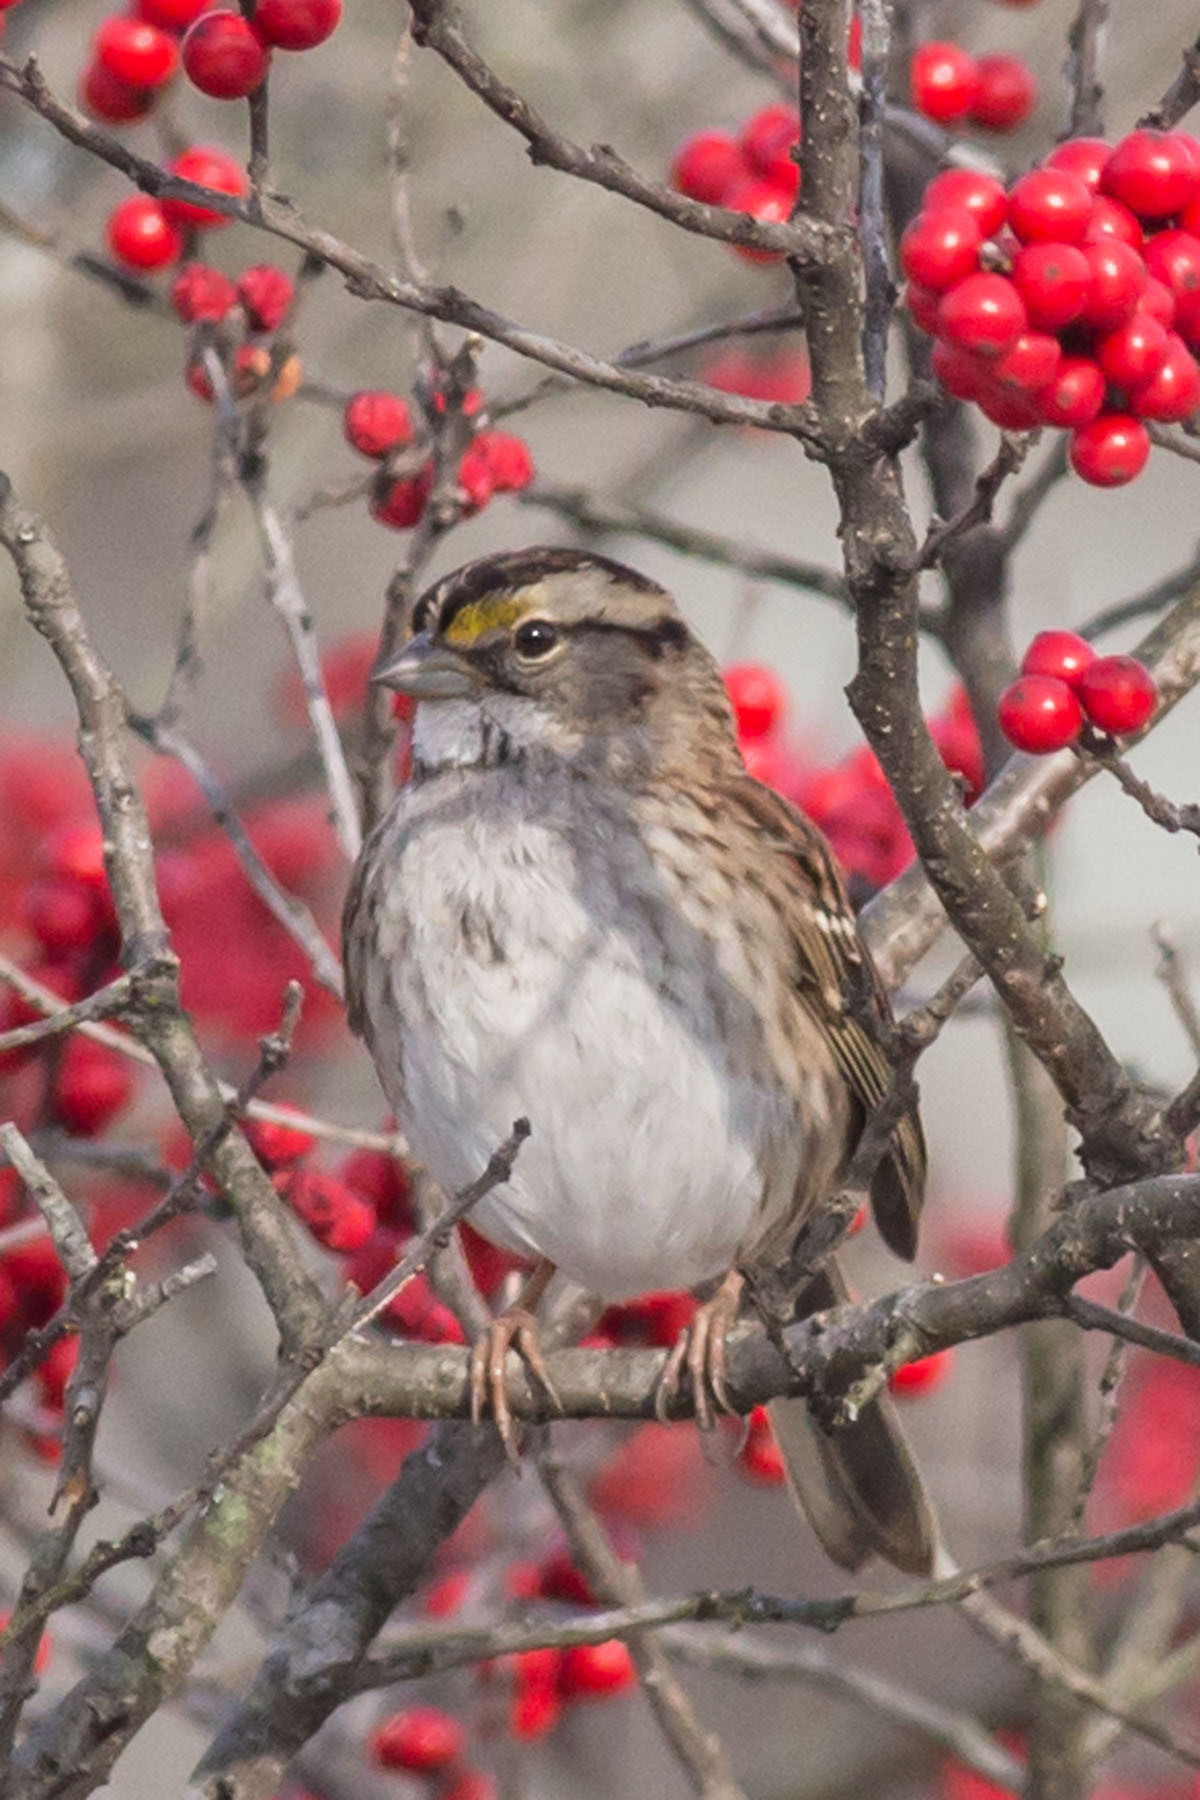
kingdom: Animalia
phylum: Chordata
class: Aves
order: Passeriformes
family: Passerellidae
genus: Zonotrichia
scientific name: Zonotrichia albicollis
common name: White-throated sparrow
